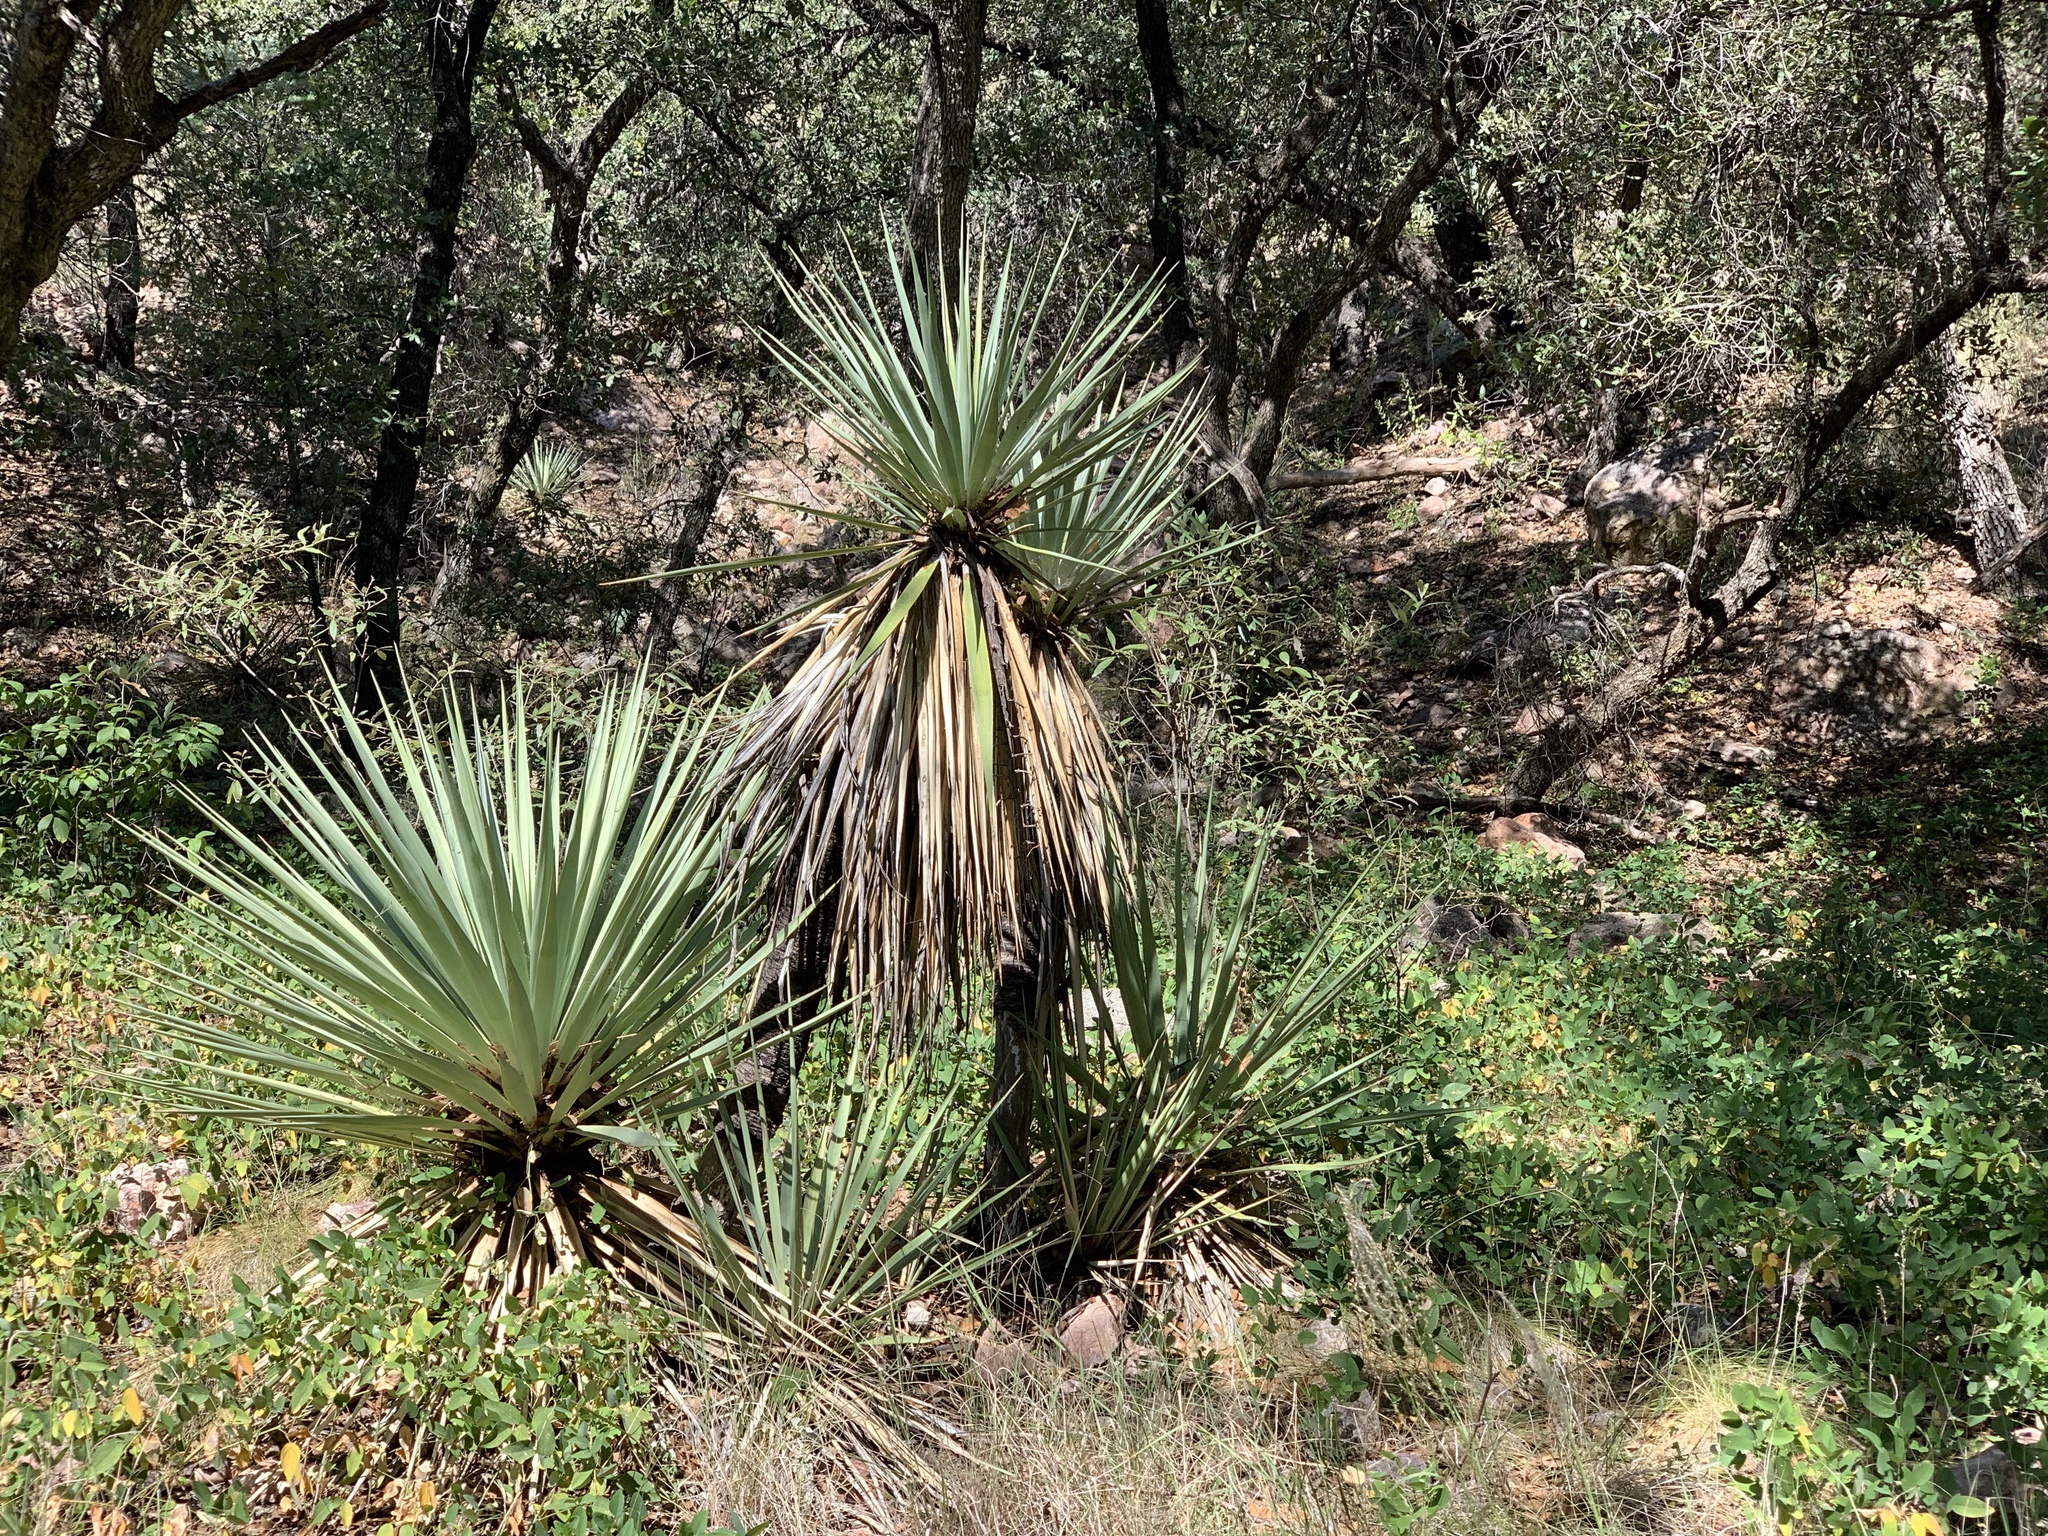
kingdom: Plantae
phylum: Tracheophyta
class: Liliopsida
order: Asparagales
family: Asparagaceae
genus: Yucca
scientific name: Yucca madrensis
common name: Hoary yucca
